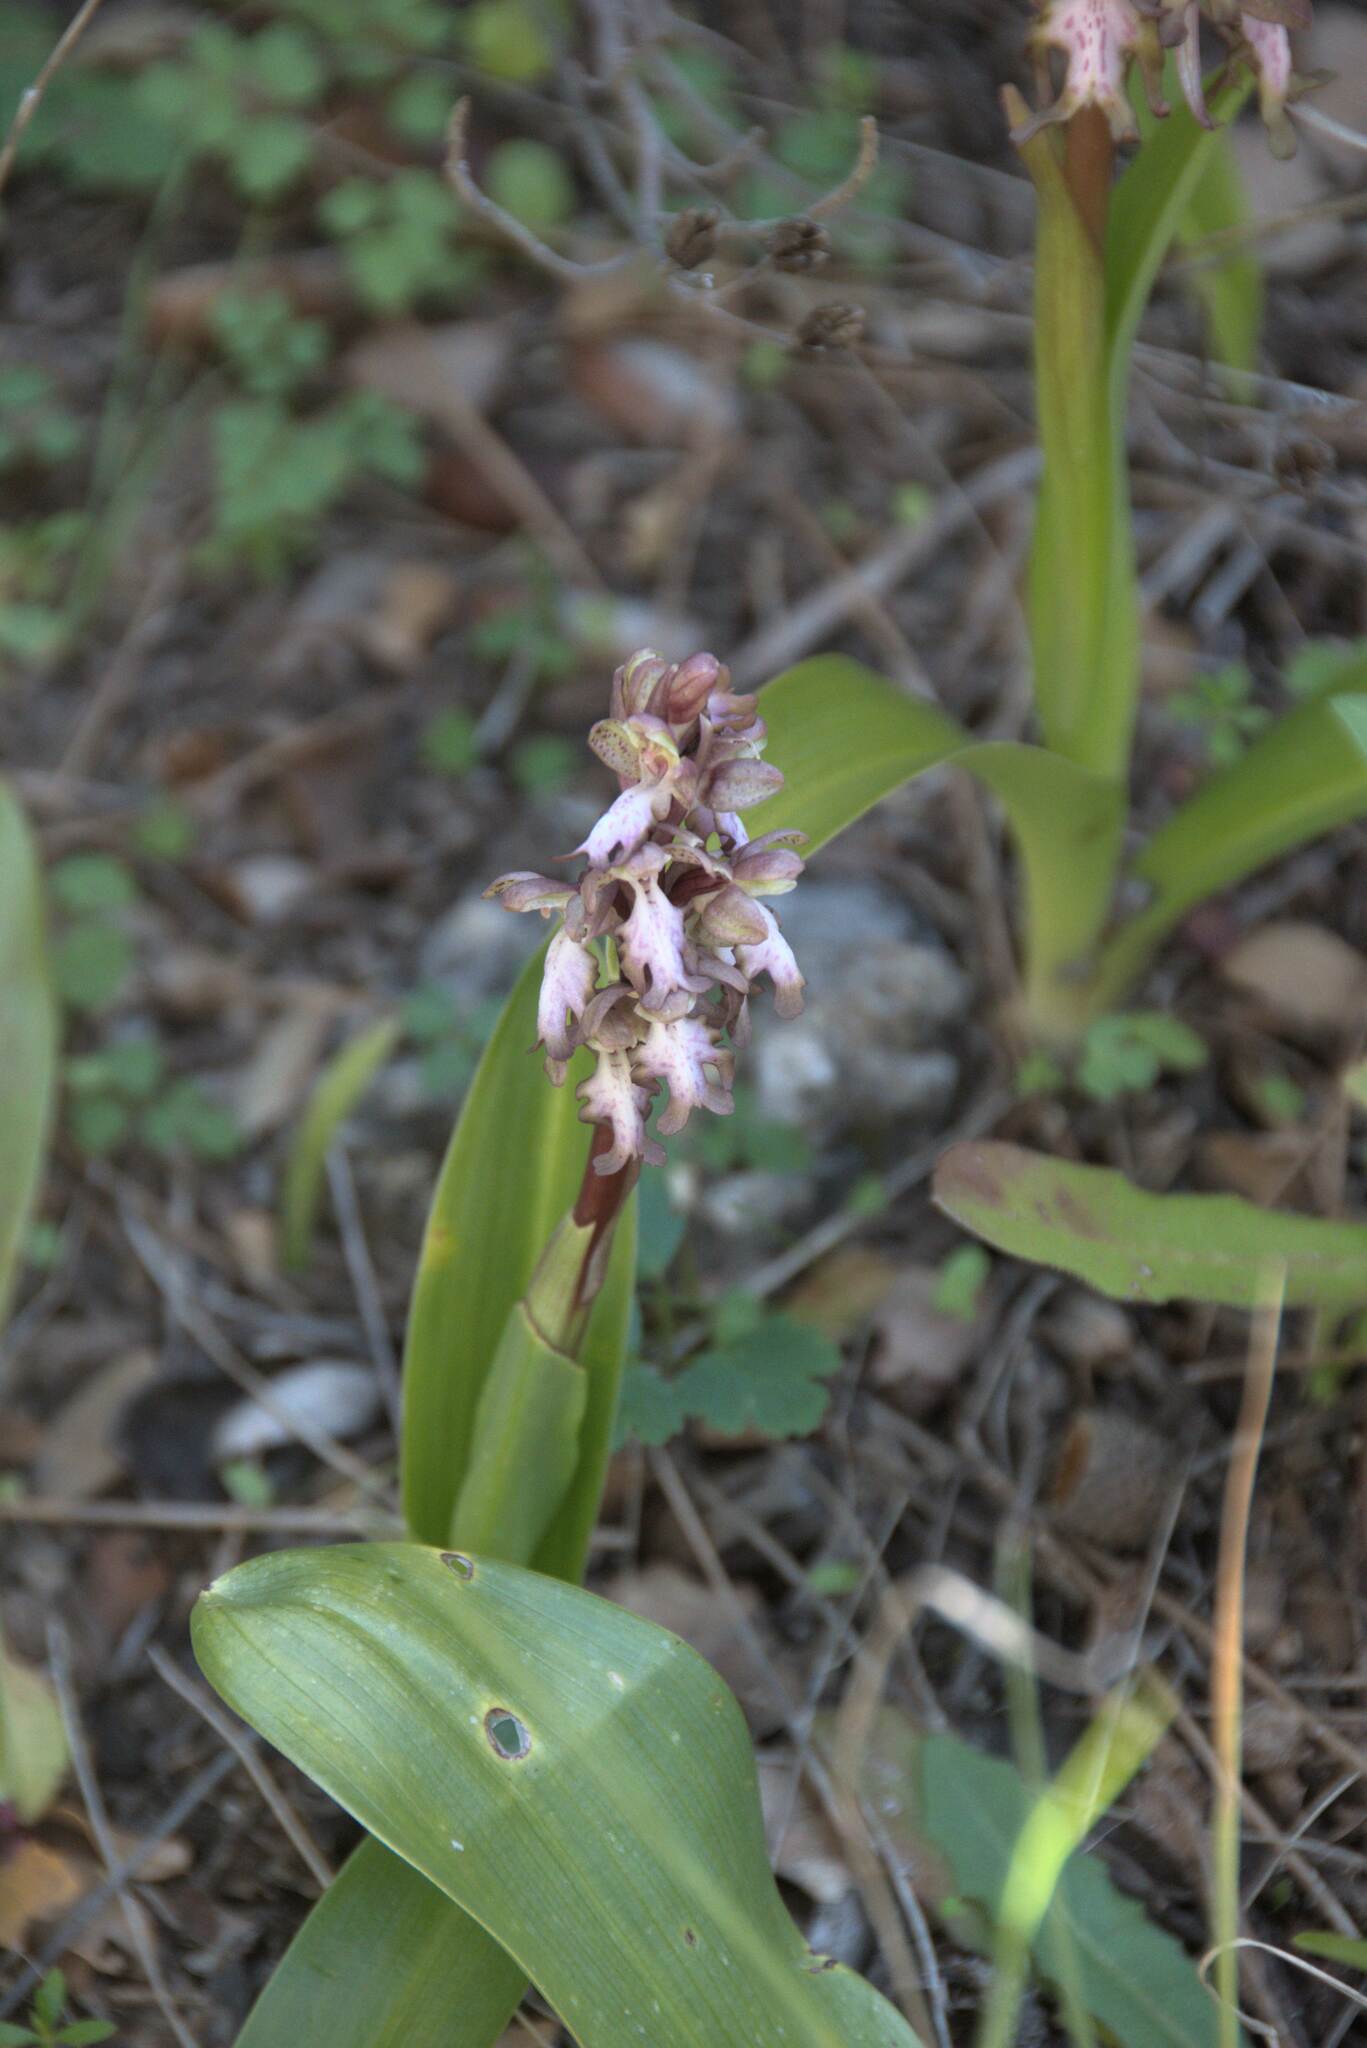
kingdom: Plantae
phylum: Tracheophyta
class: Liliopsida
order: Asparagales
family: Orchidaceae
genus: Himantoglossum
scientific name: Himantoglossum robertianum
